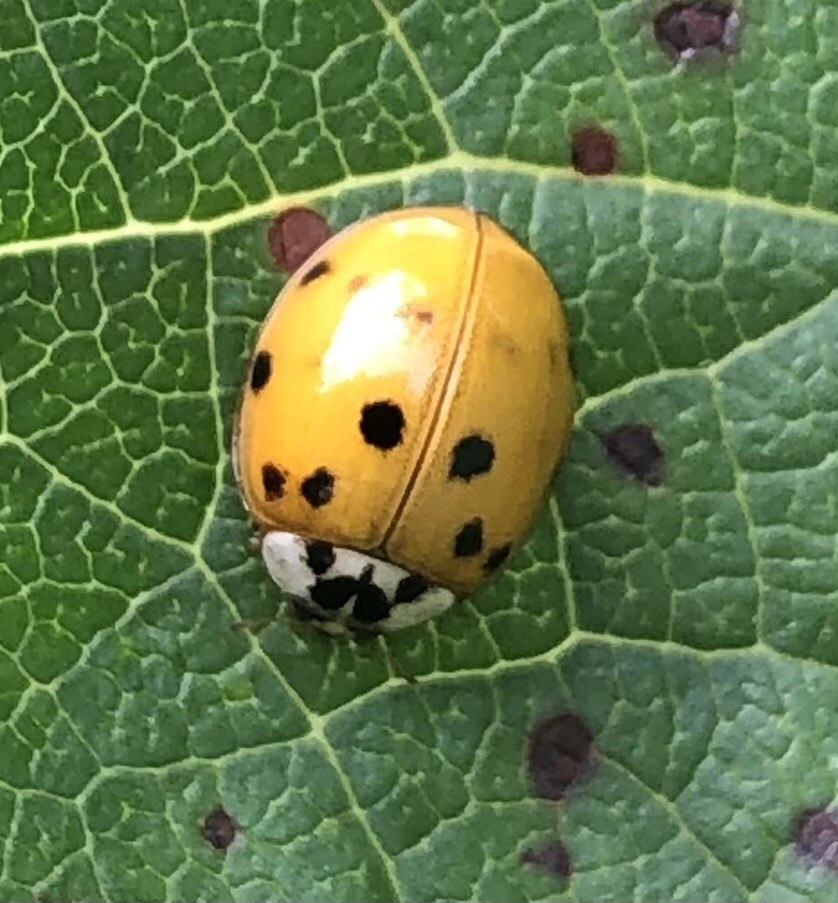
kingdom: Animalia
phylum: Arthropoda
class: Insecta
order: Coleoptera
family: Coccinellidae
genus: Harmonia
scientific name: Harmonia axyridis
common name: Harlequin ladybird
